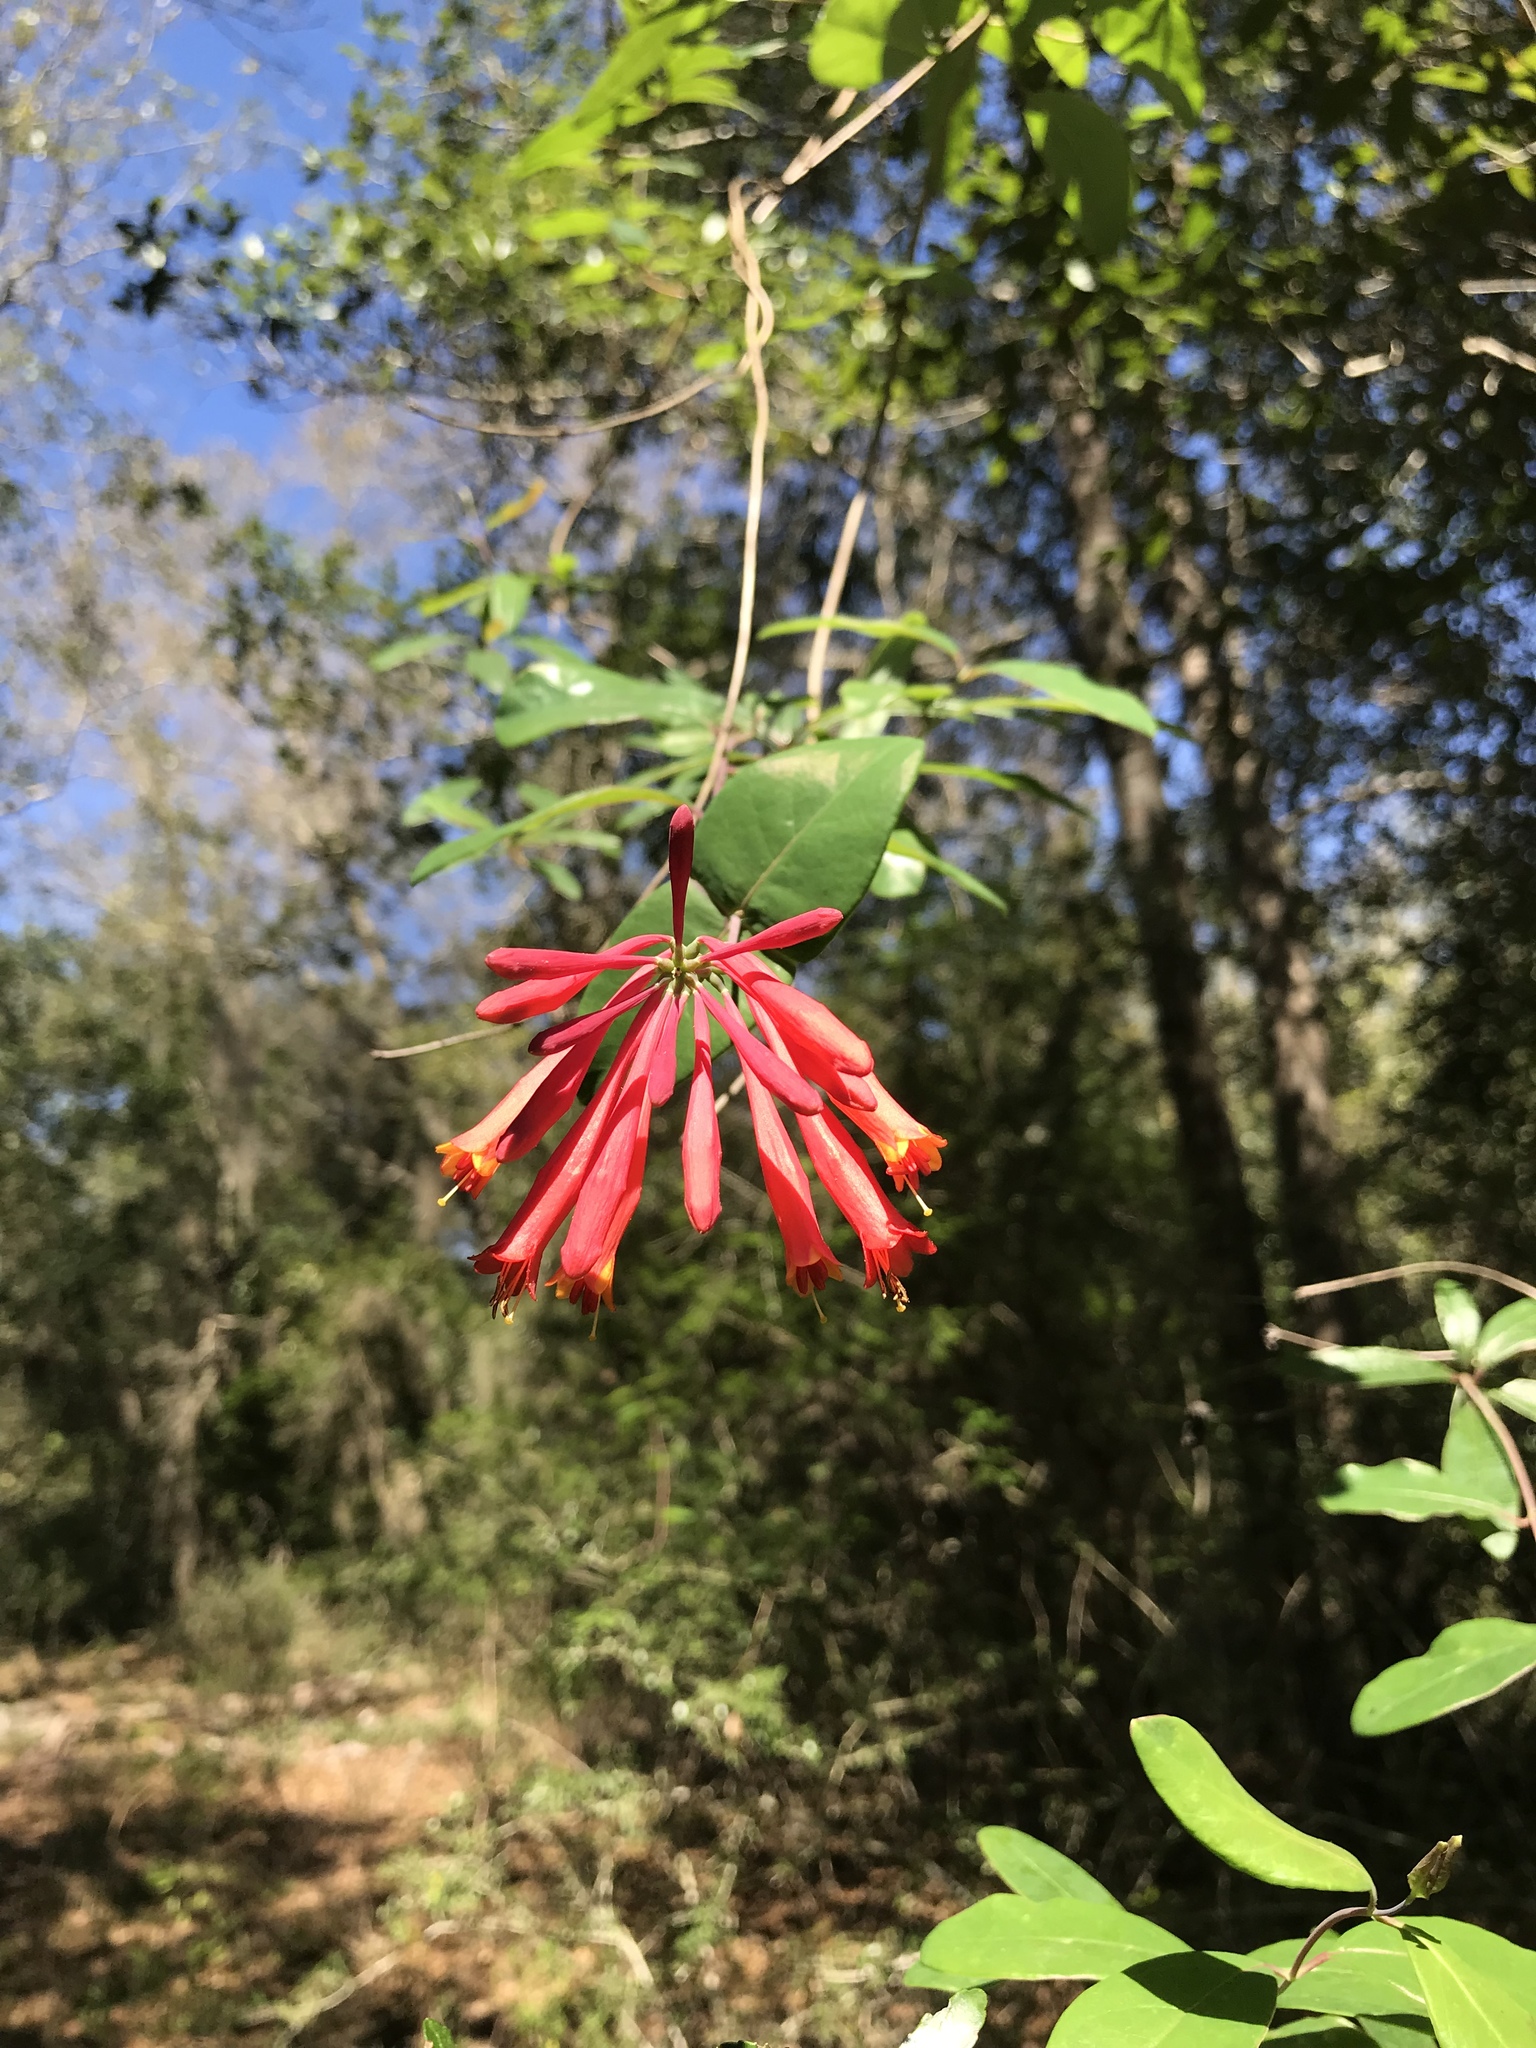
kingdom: Plantae
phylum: Tracheophyta
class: Magnoliopsida
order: Dipsacales
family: Caprifoliaceae
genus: Lonicera
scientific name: Lonicera sempervirens
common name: Coral honeysuckle
